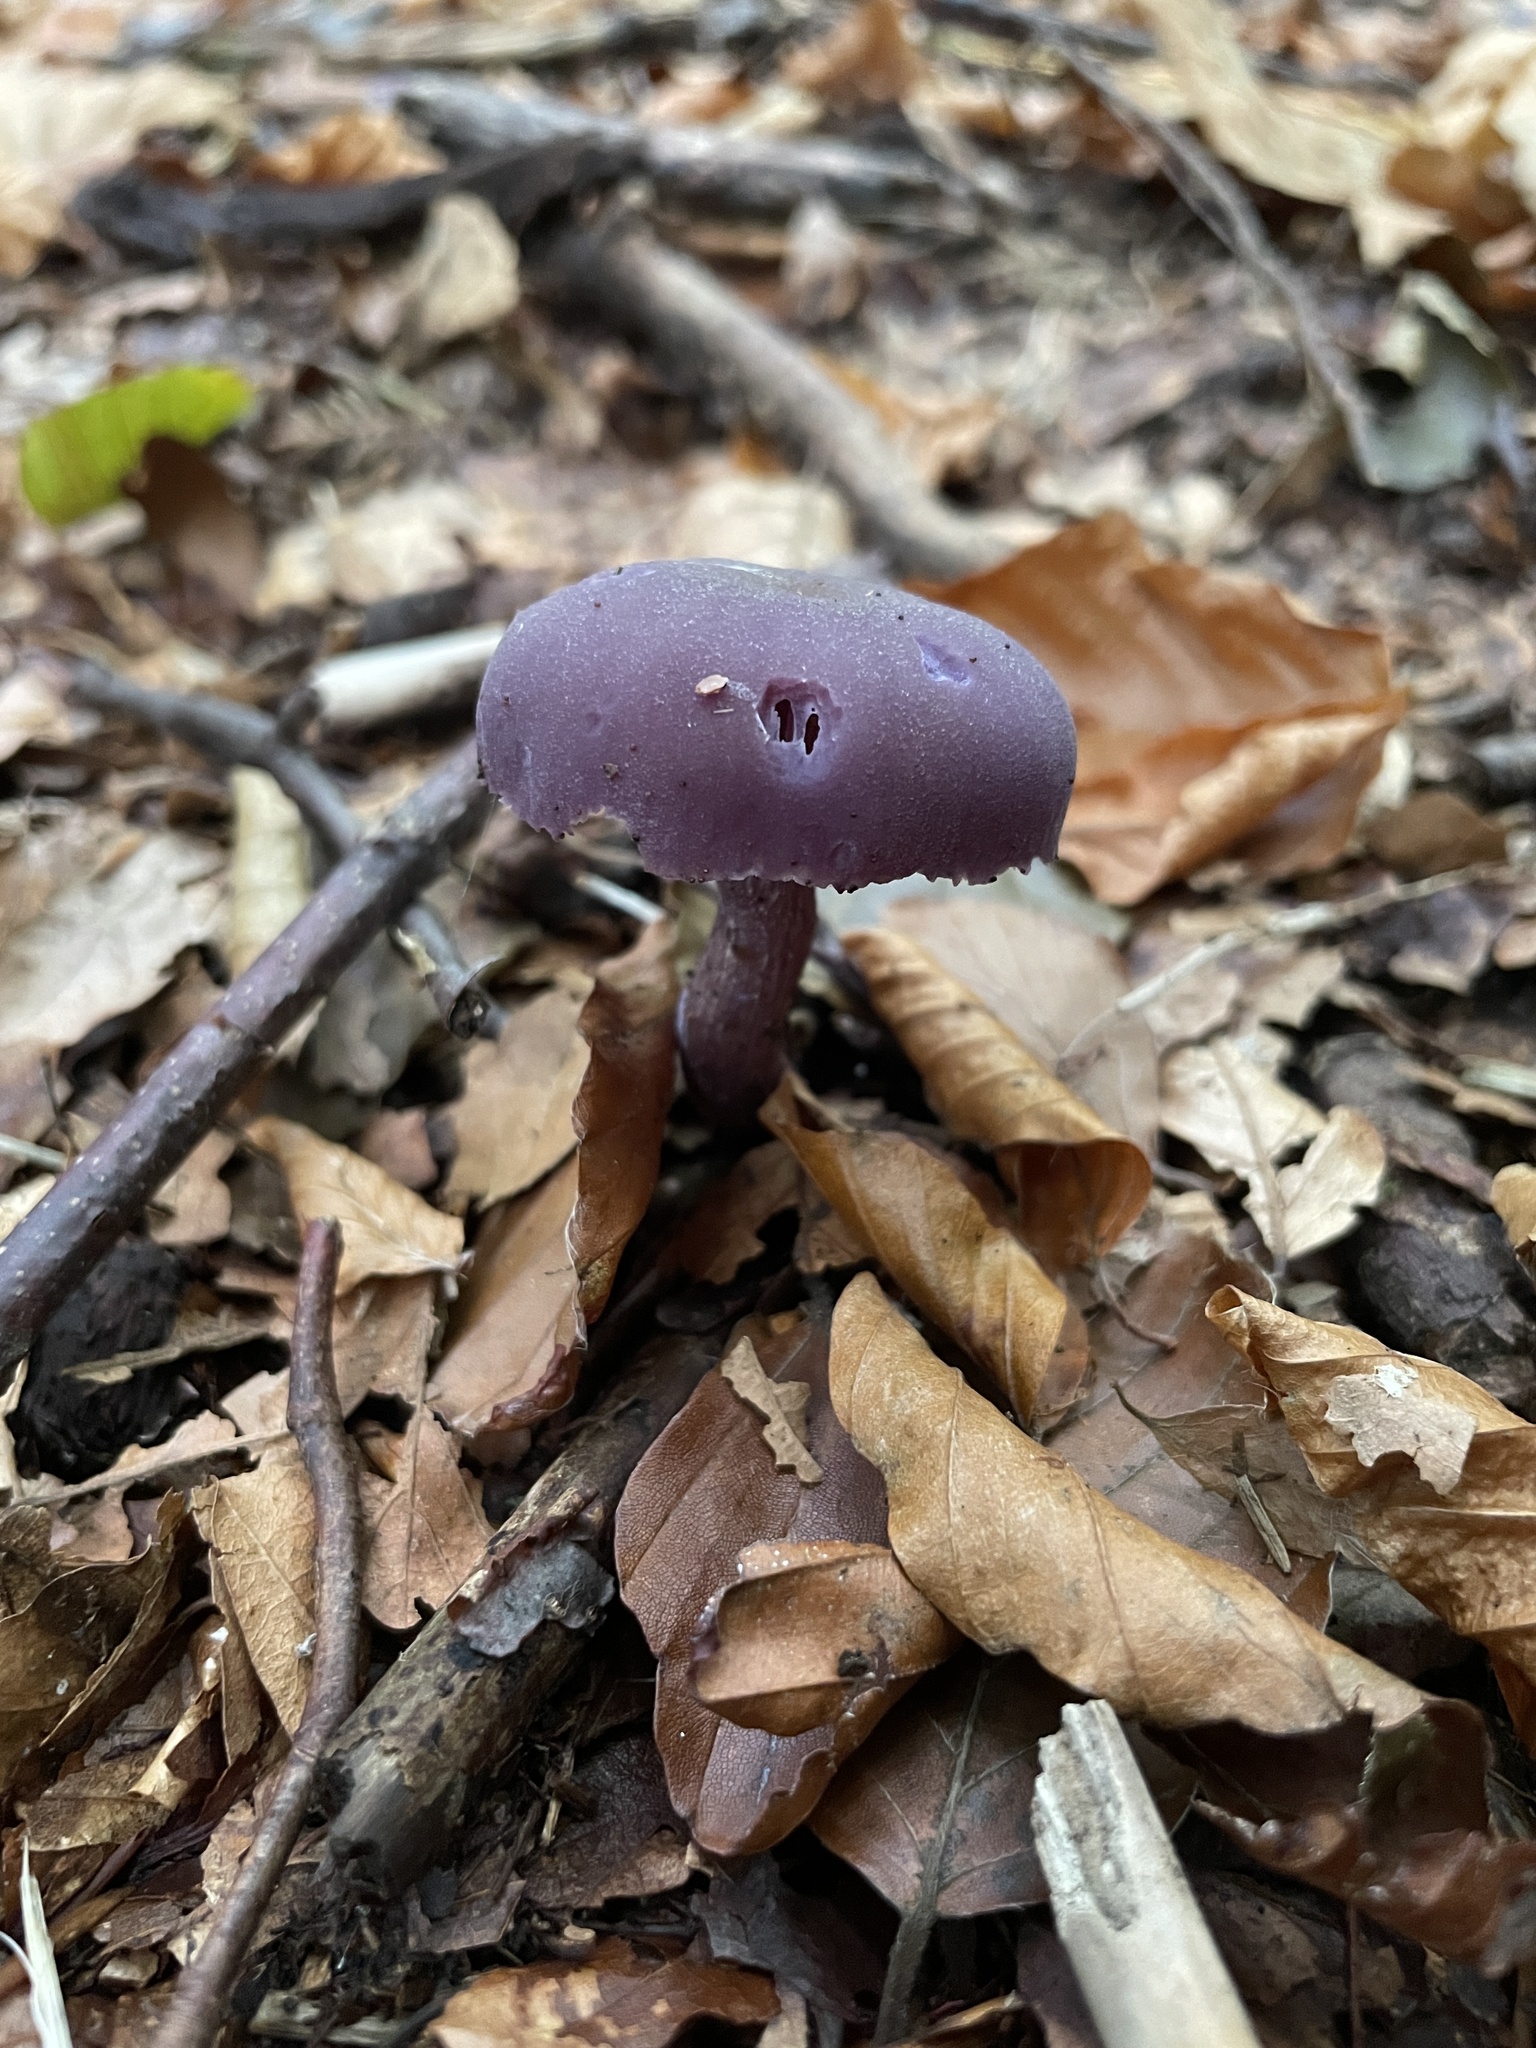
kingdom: Fungi
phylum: Basidiomycota
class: Agaricomycetes
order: Agaricales
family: Hydnangiaceae
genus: Laccaria
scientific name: Laccaria amethystina
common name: Amethyst deceiver
